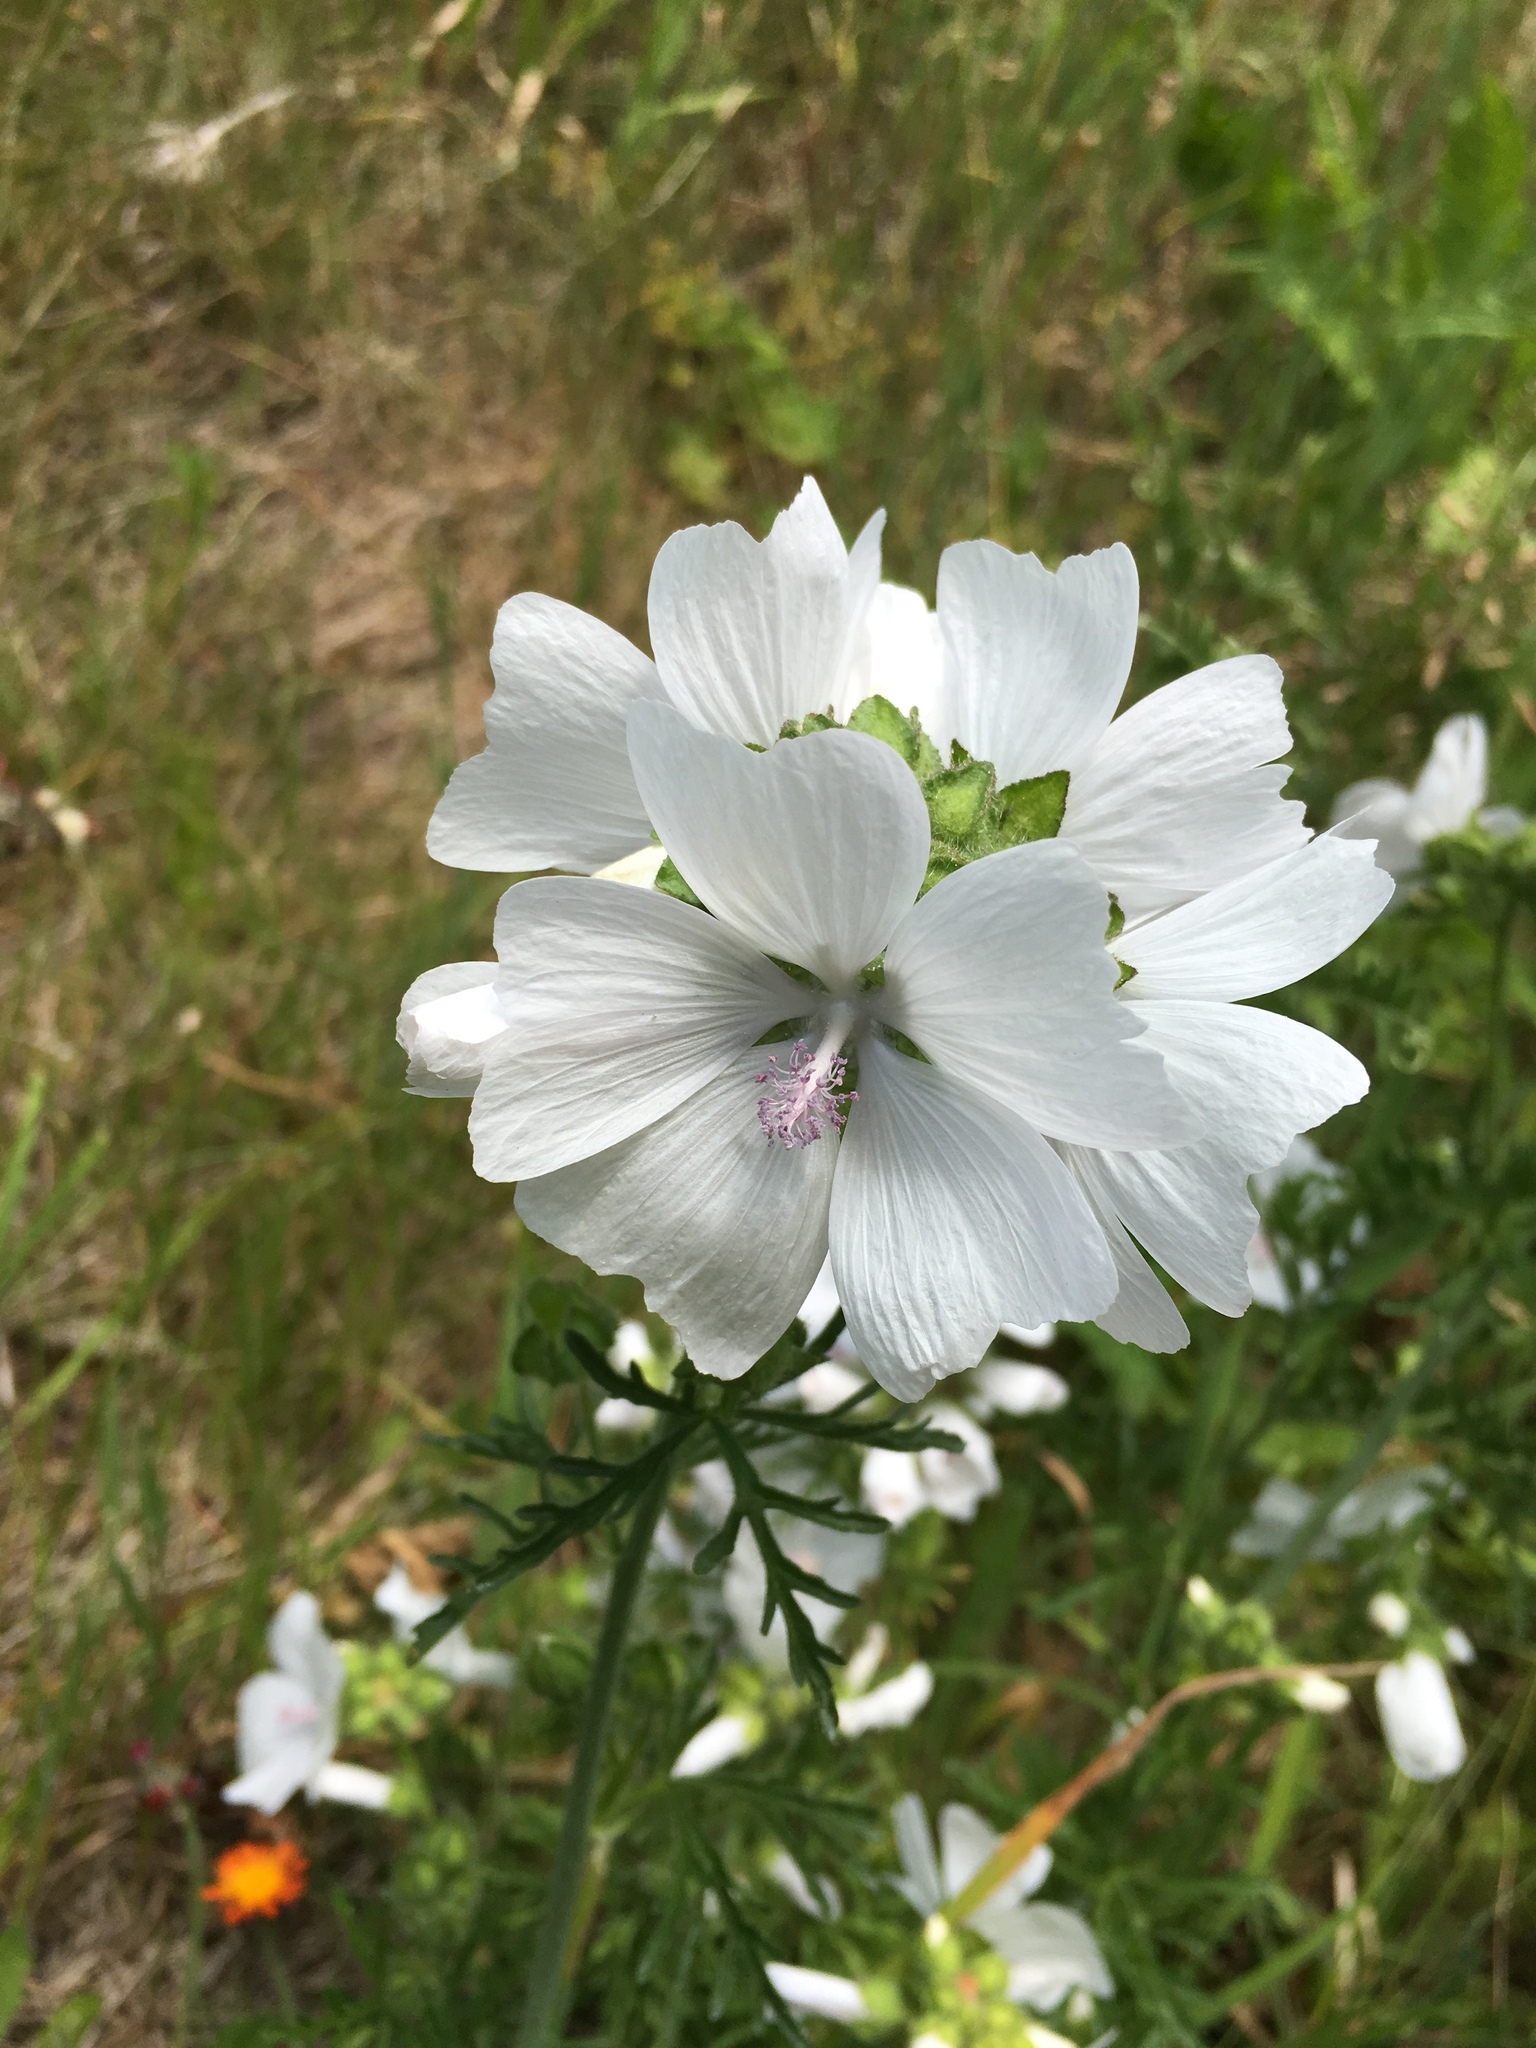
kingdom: Plantae
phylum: Tracheophyta
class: Magnoliopsida
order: Malvales
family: Malvaceae
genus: Malva
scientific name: Malva moschata
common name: Musk mallow
